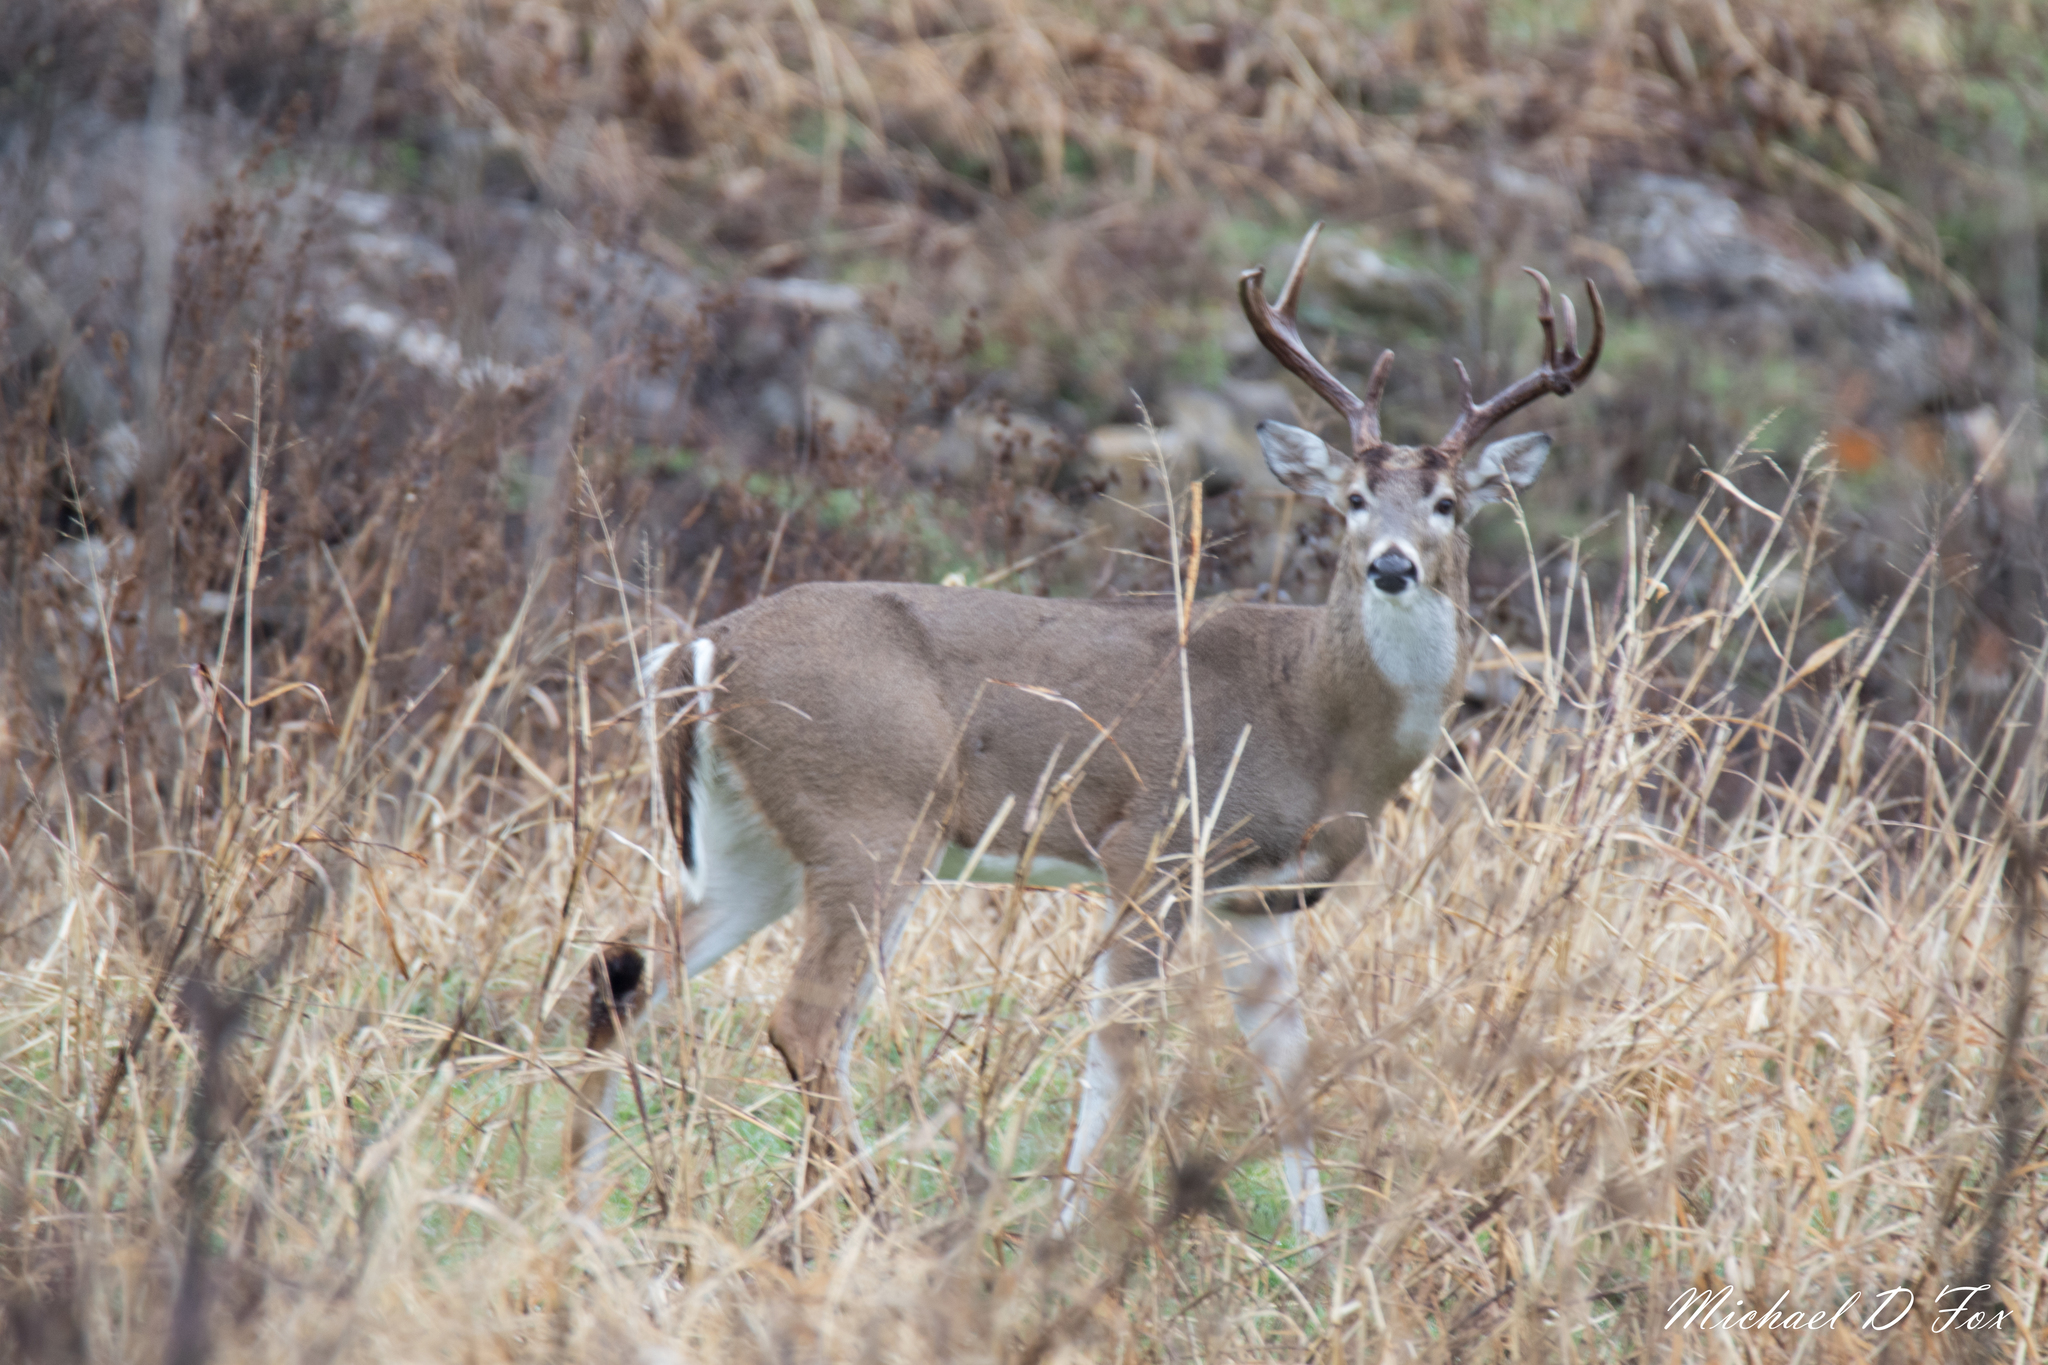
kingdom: Animalia
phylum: Chordata
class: Mammalia
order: Artiodactyla
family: Cervidae
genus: Odocoileus
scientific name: Odocoileus virginianus
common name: White-tailed deer
